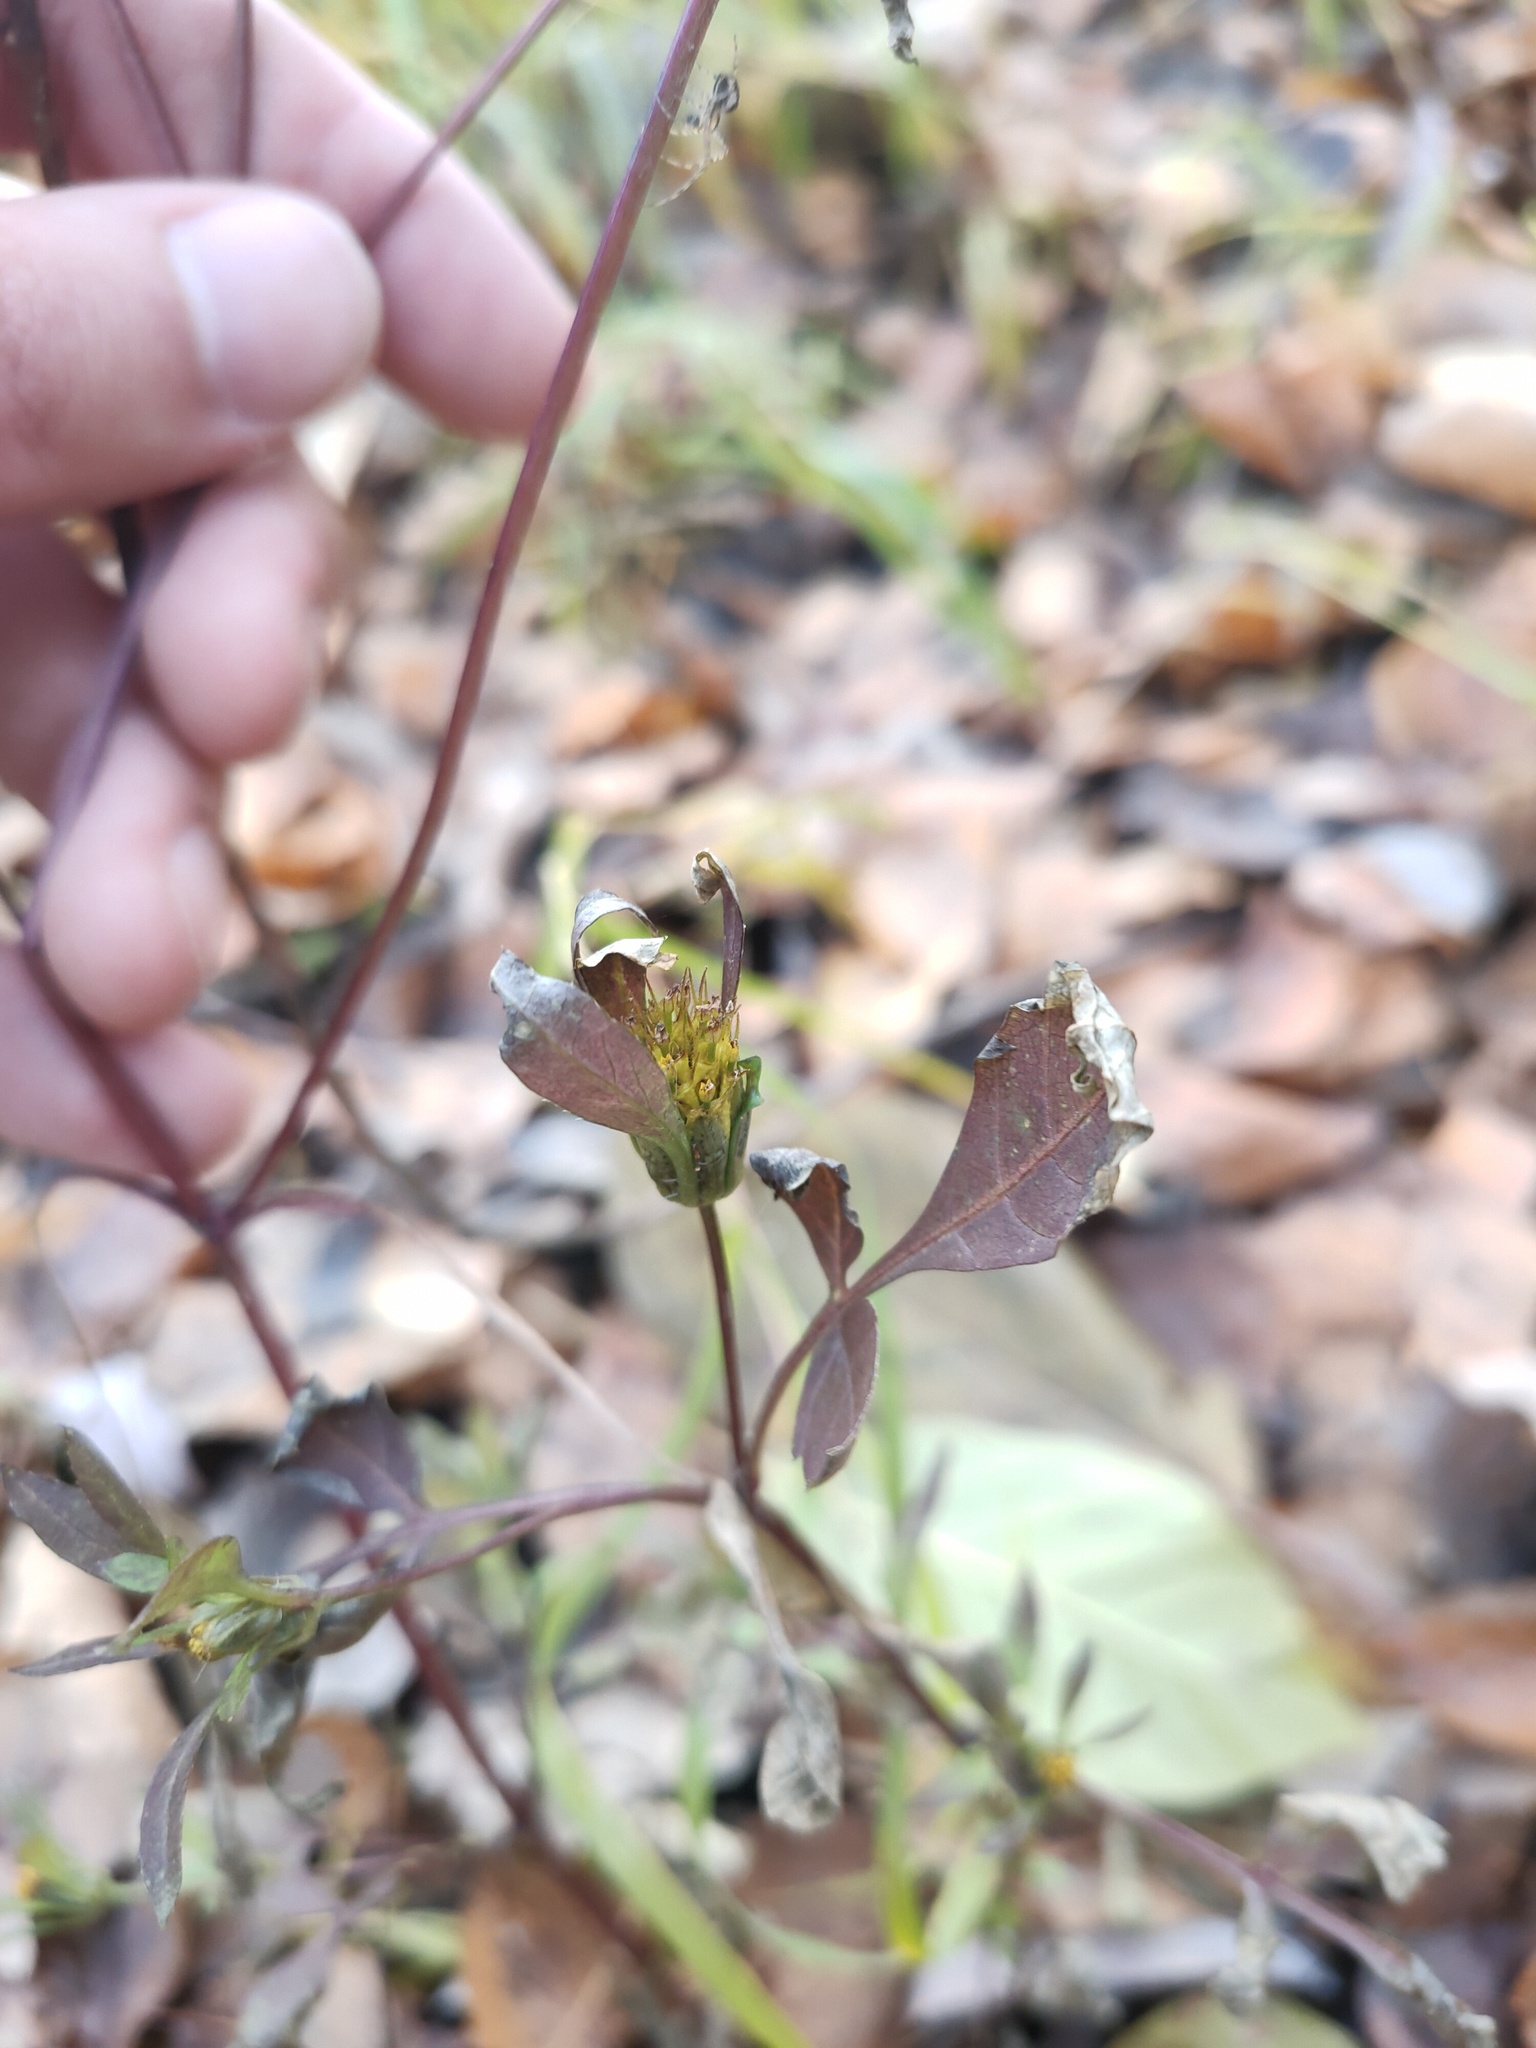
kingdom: Plantae
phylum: Tracheophyta
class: Magnoliopsida
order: Asterales
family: Asteraceae
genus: Bidens
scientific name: Bidens frondosa
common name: Beggarticks
